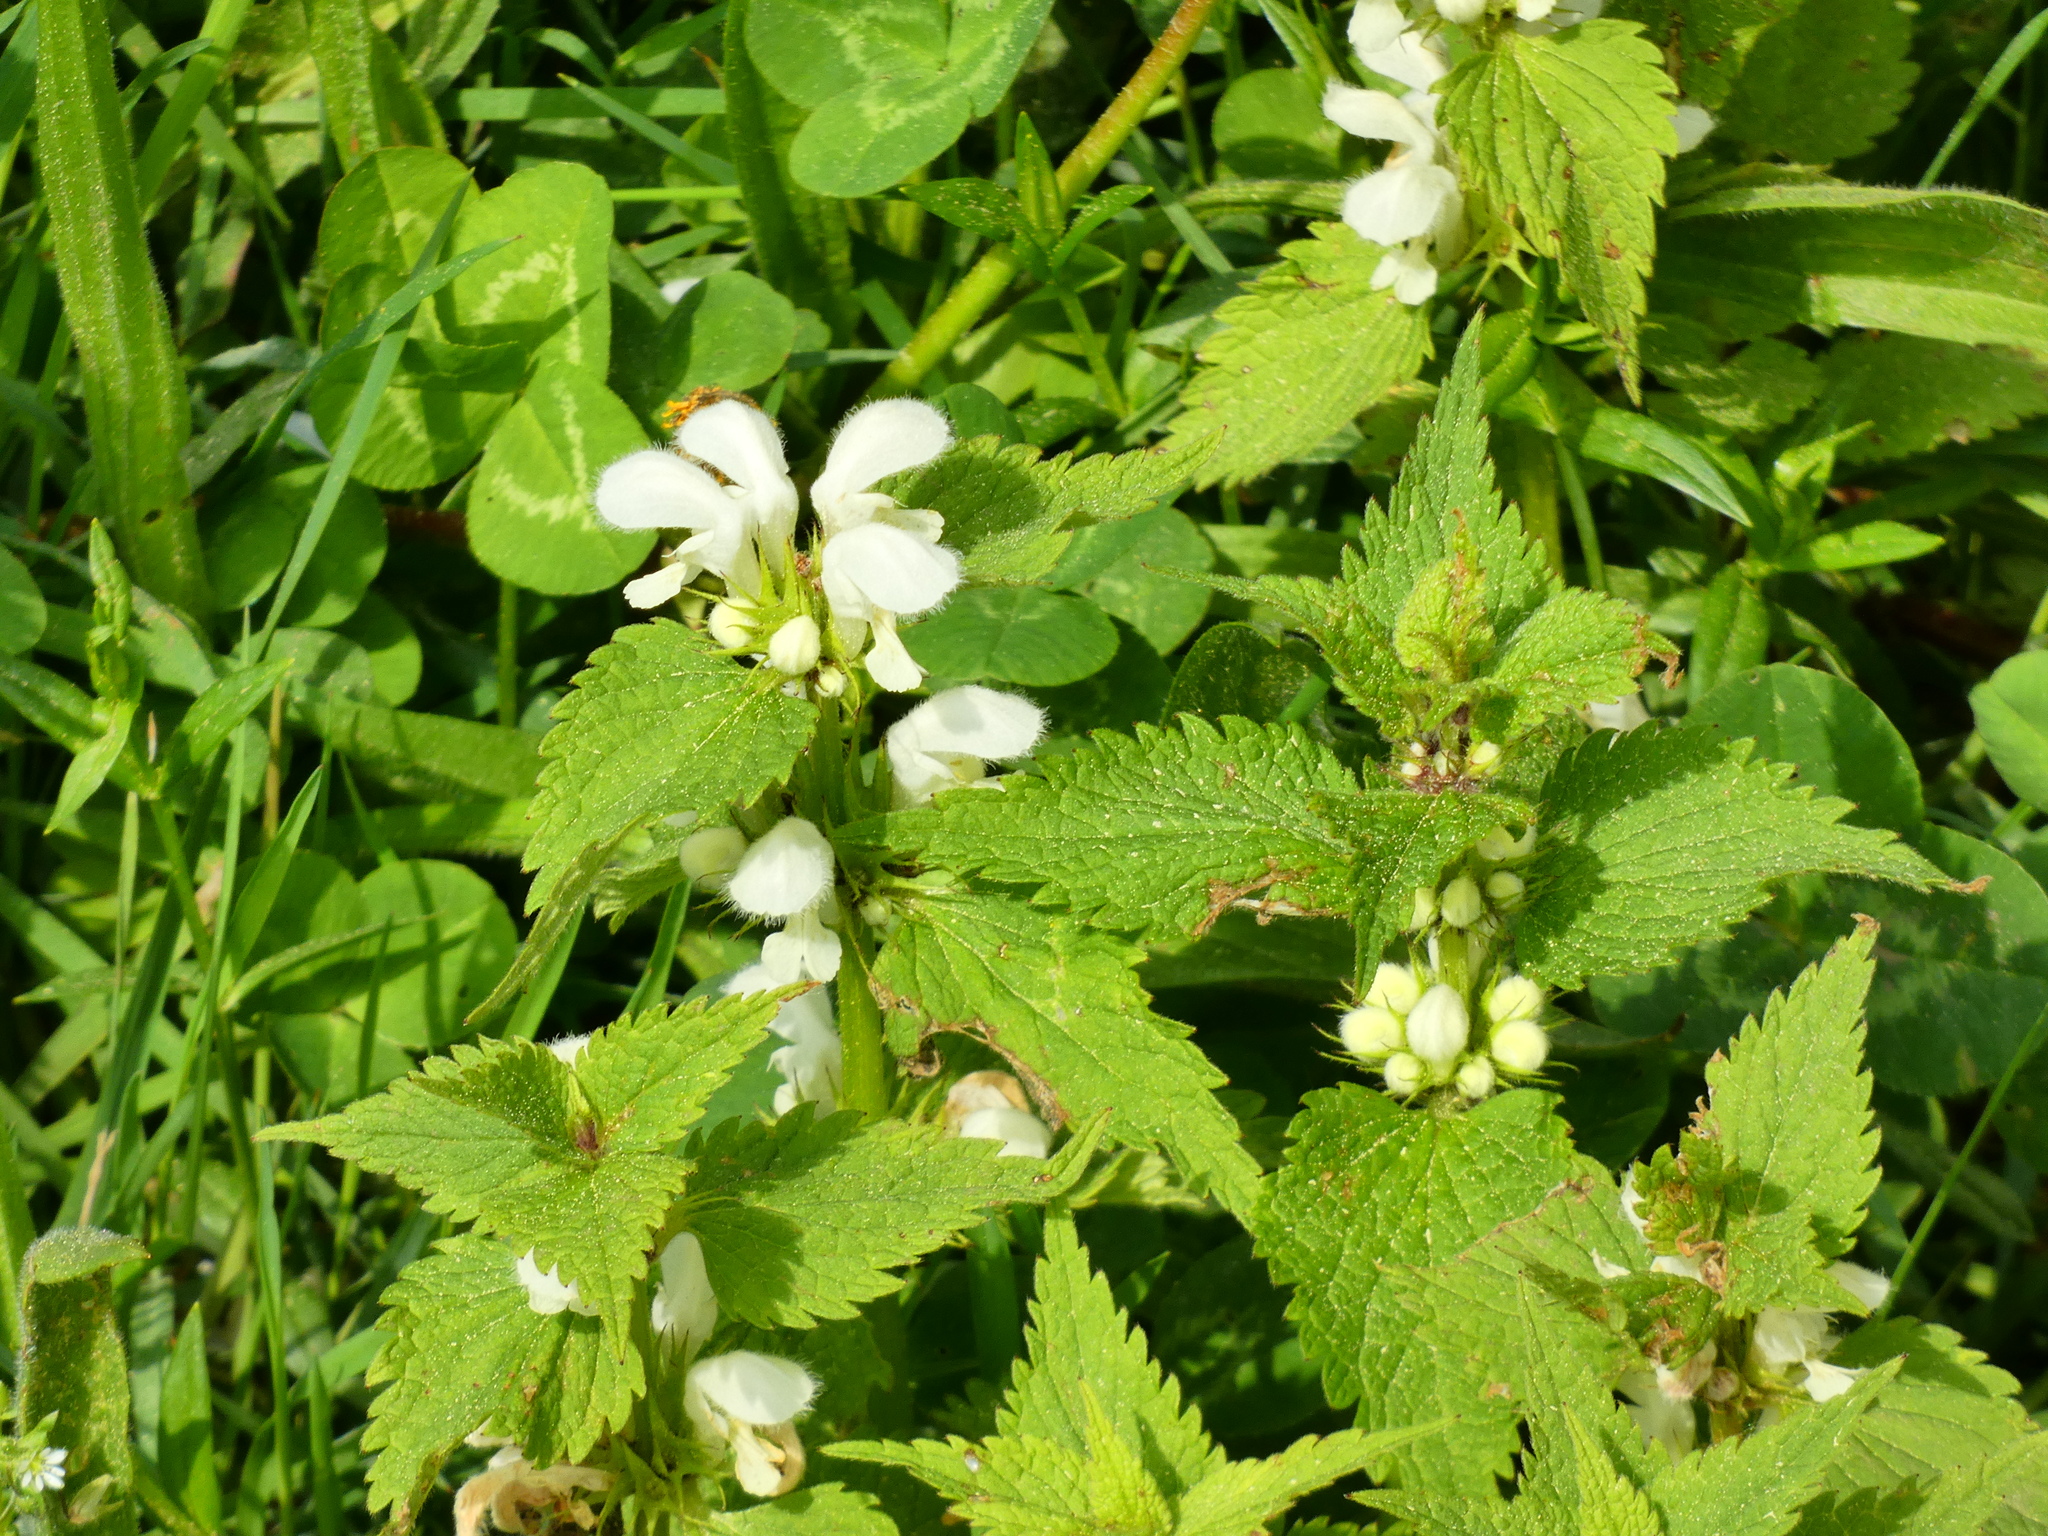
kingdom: Plantae
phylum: Tracheophyta
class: Magnoliopsida
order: Lamiales
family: Lamiaceae
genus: Lamium
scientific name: Lamium album
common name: White dead-nettle
